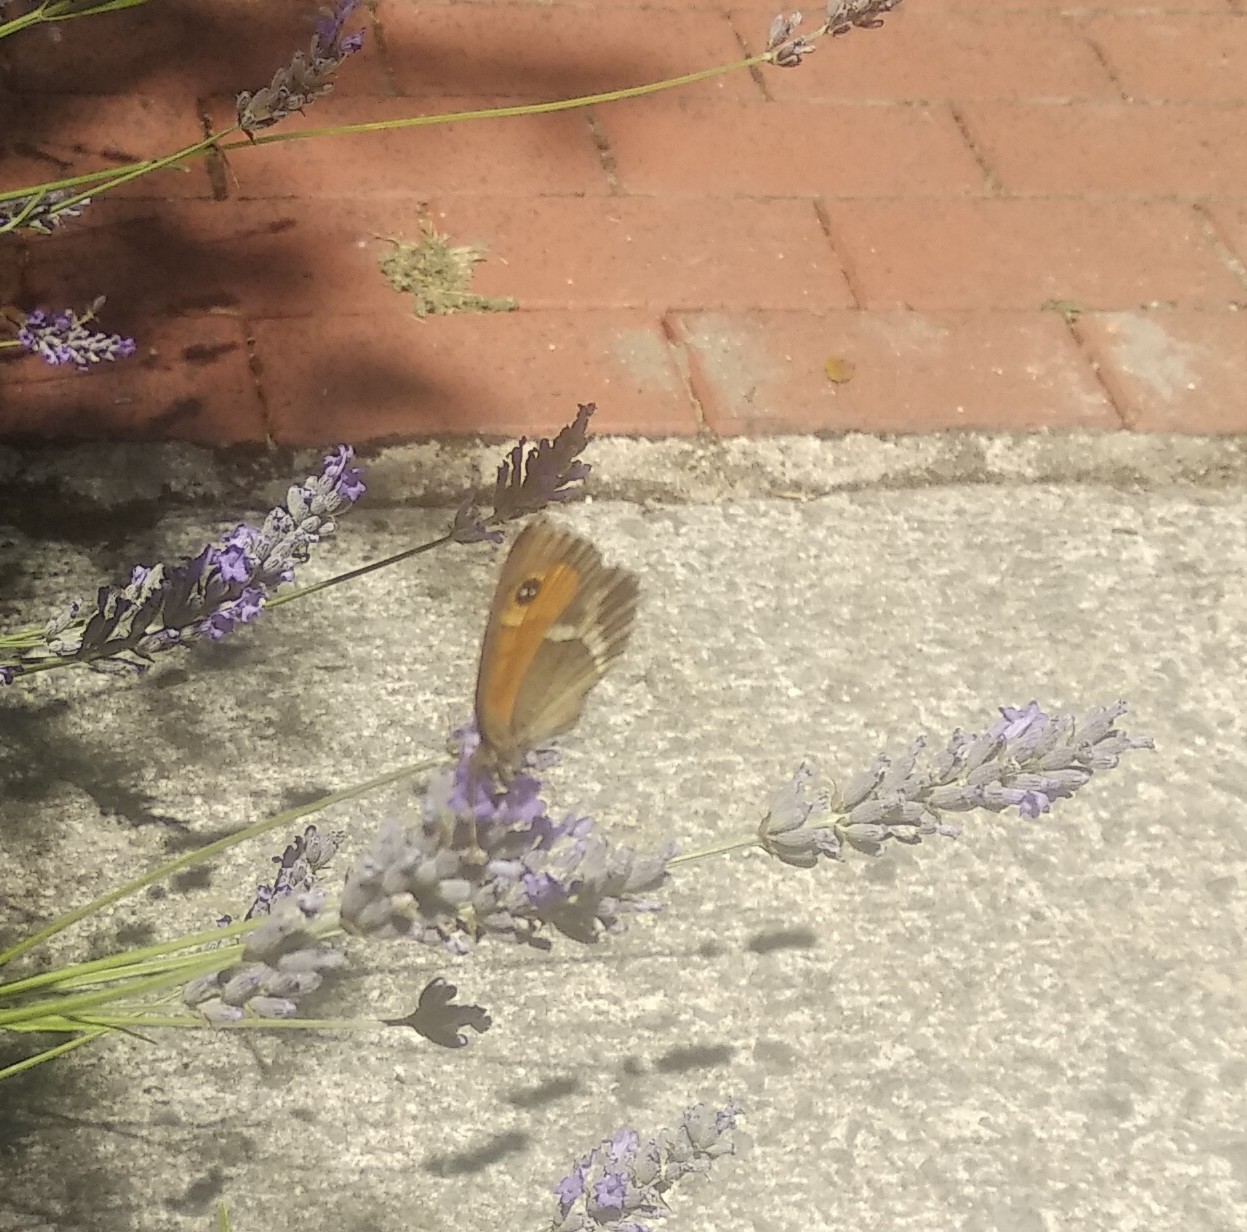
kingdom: Animalia
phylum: Arthropoda
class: Insecta
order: Lepidoptera
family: Nymphalidae
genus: Pyronia
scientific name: Pyronia bathseba
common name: Spanish gatekeeper
